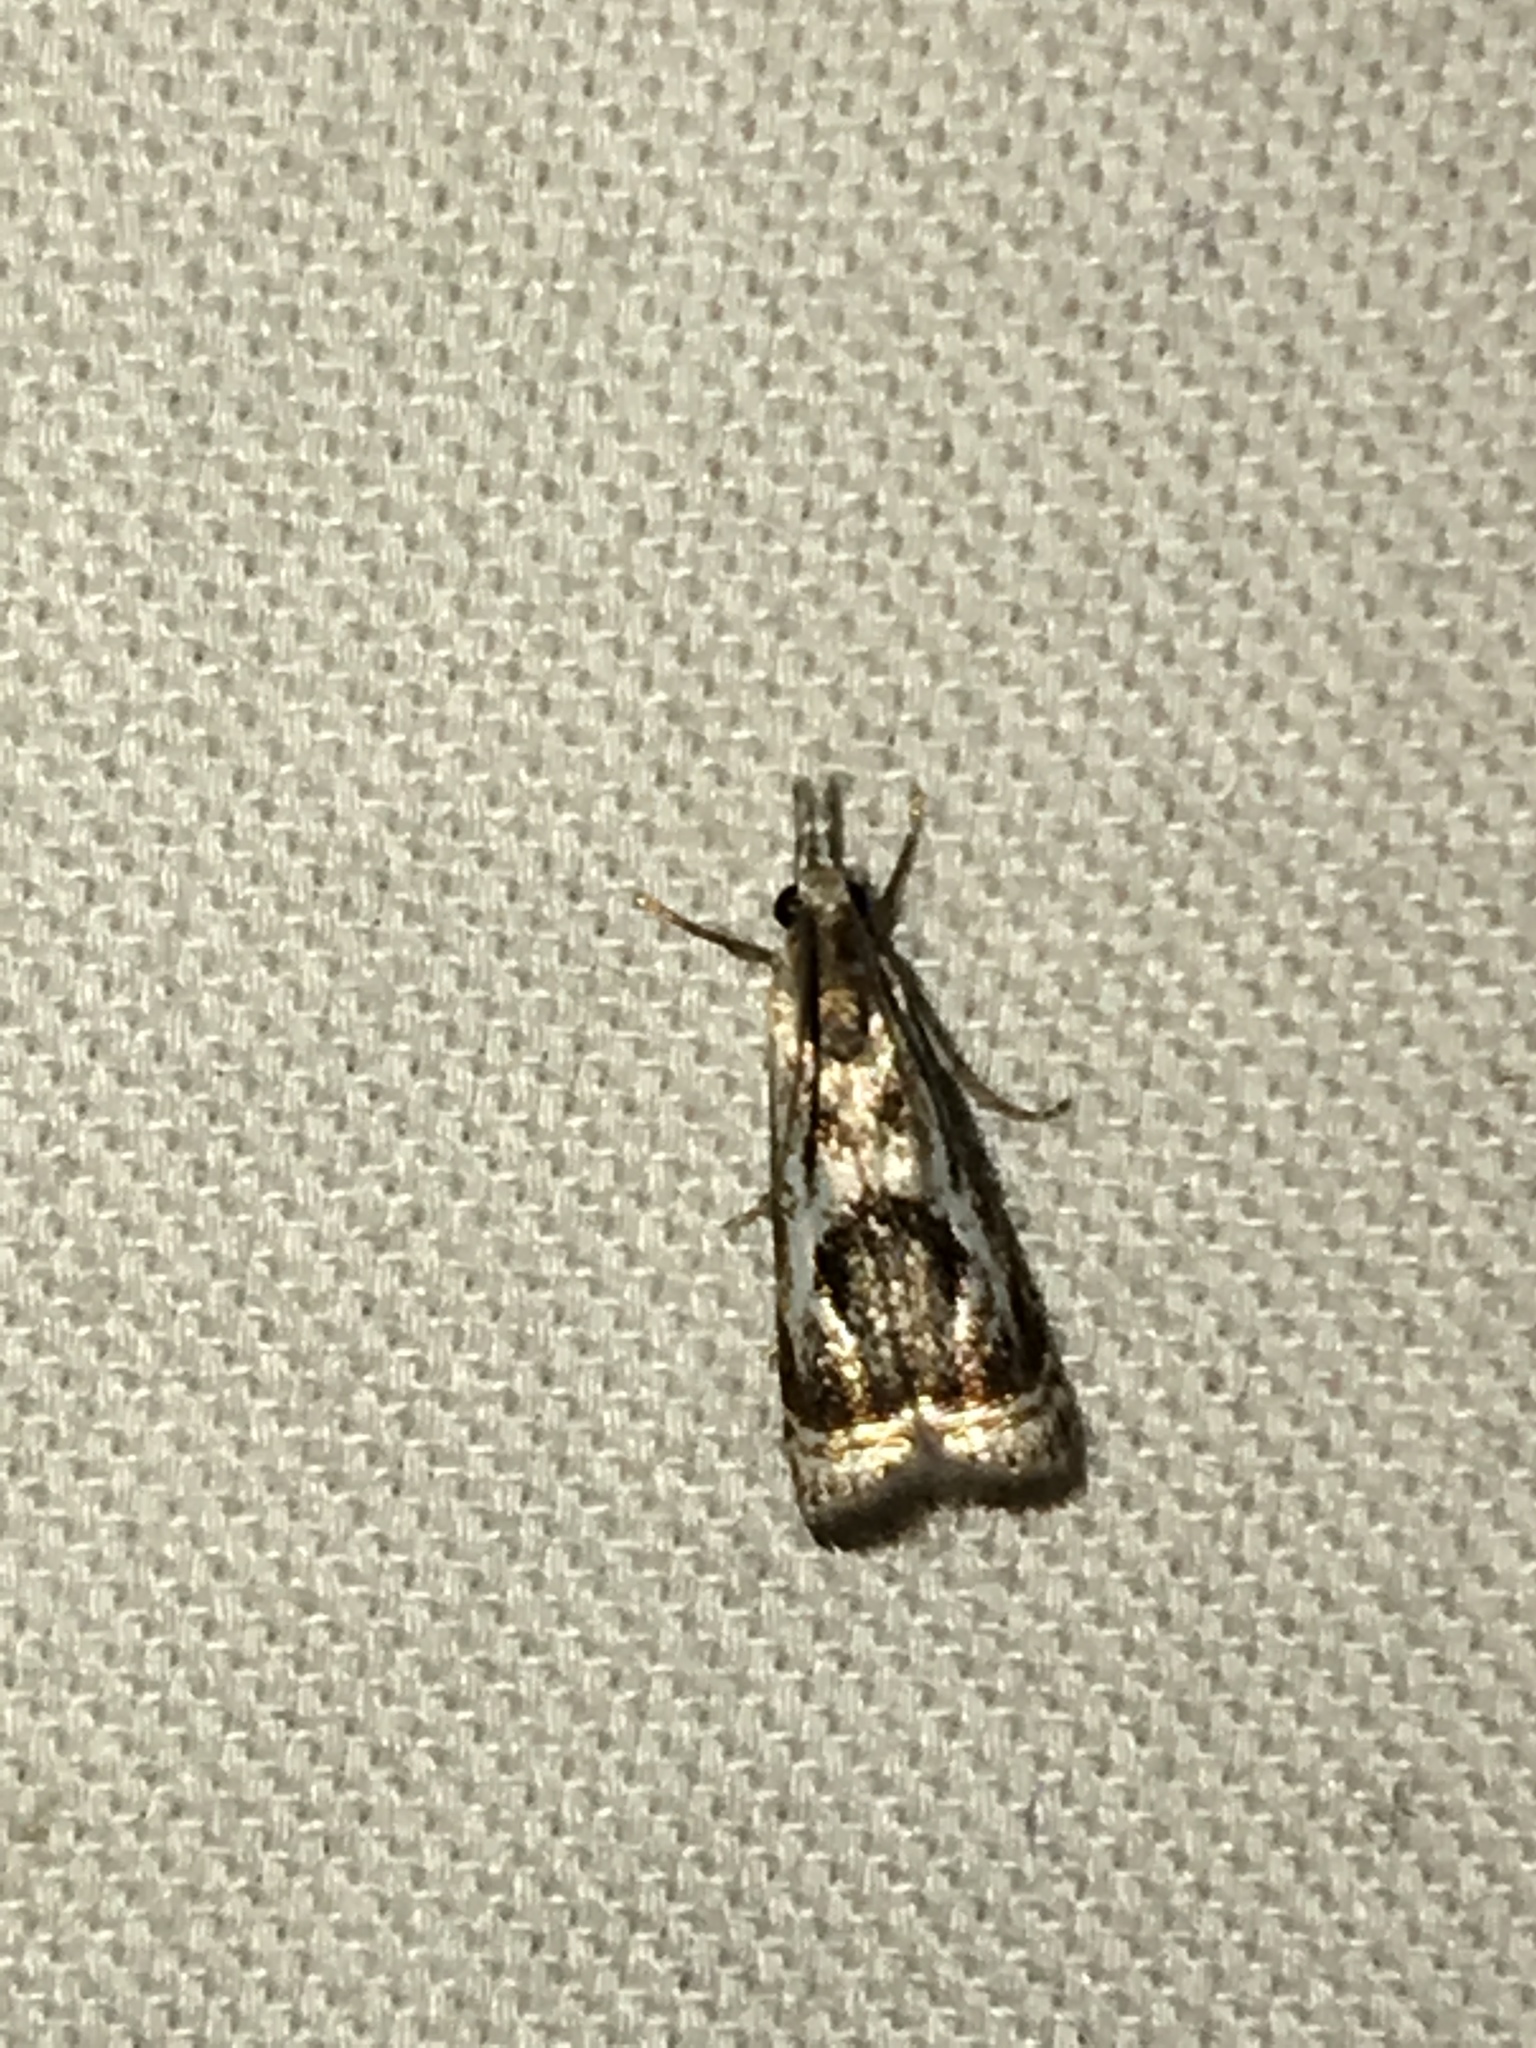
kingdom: Animalia
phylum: Arthropoda
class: Insecta
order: Lepidoptera
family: Crambidae
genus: Microcrambus
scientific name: Microcrambus elegans
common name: Elegant grass-veneer
